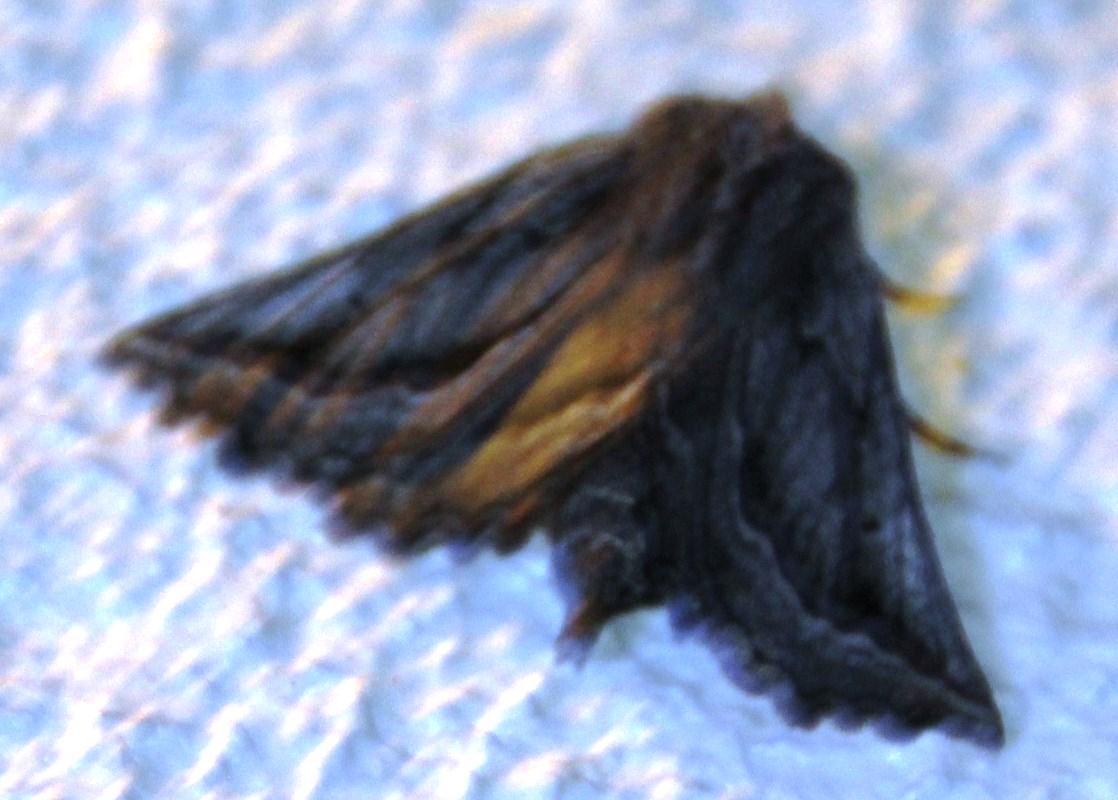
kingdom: Animalia
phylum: Arthropoda
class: Insecta
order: Lepidoptera
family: Geometridae
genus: Axiodes
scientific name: Axiodes
